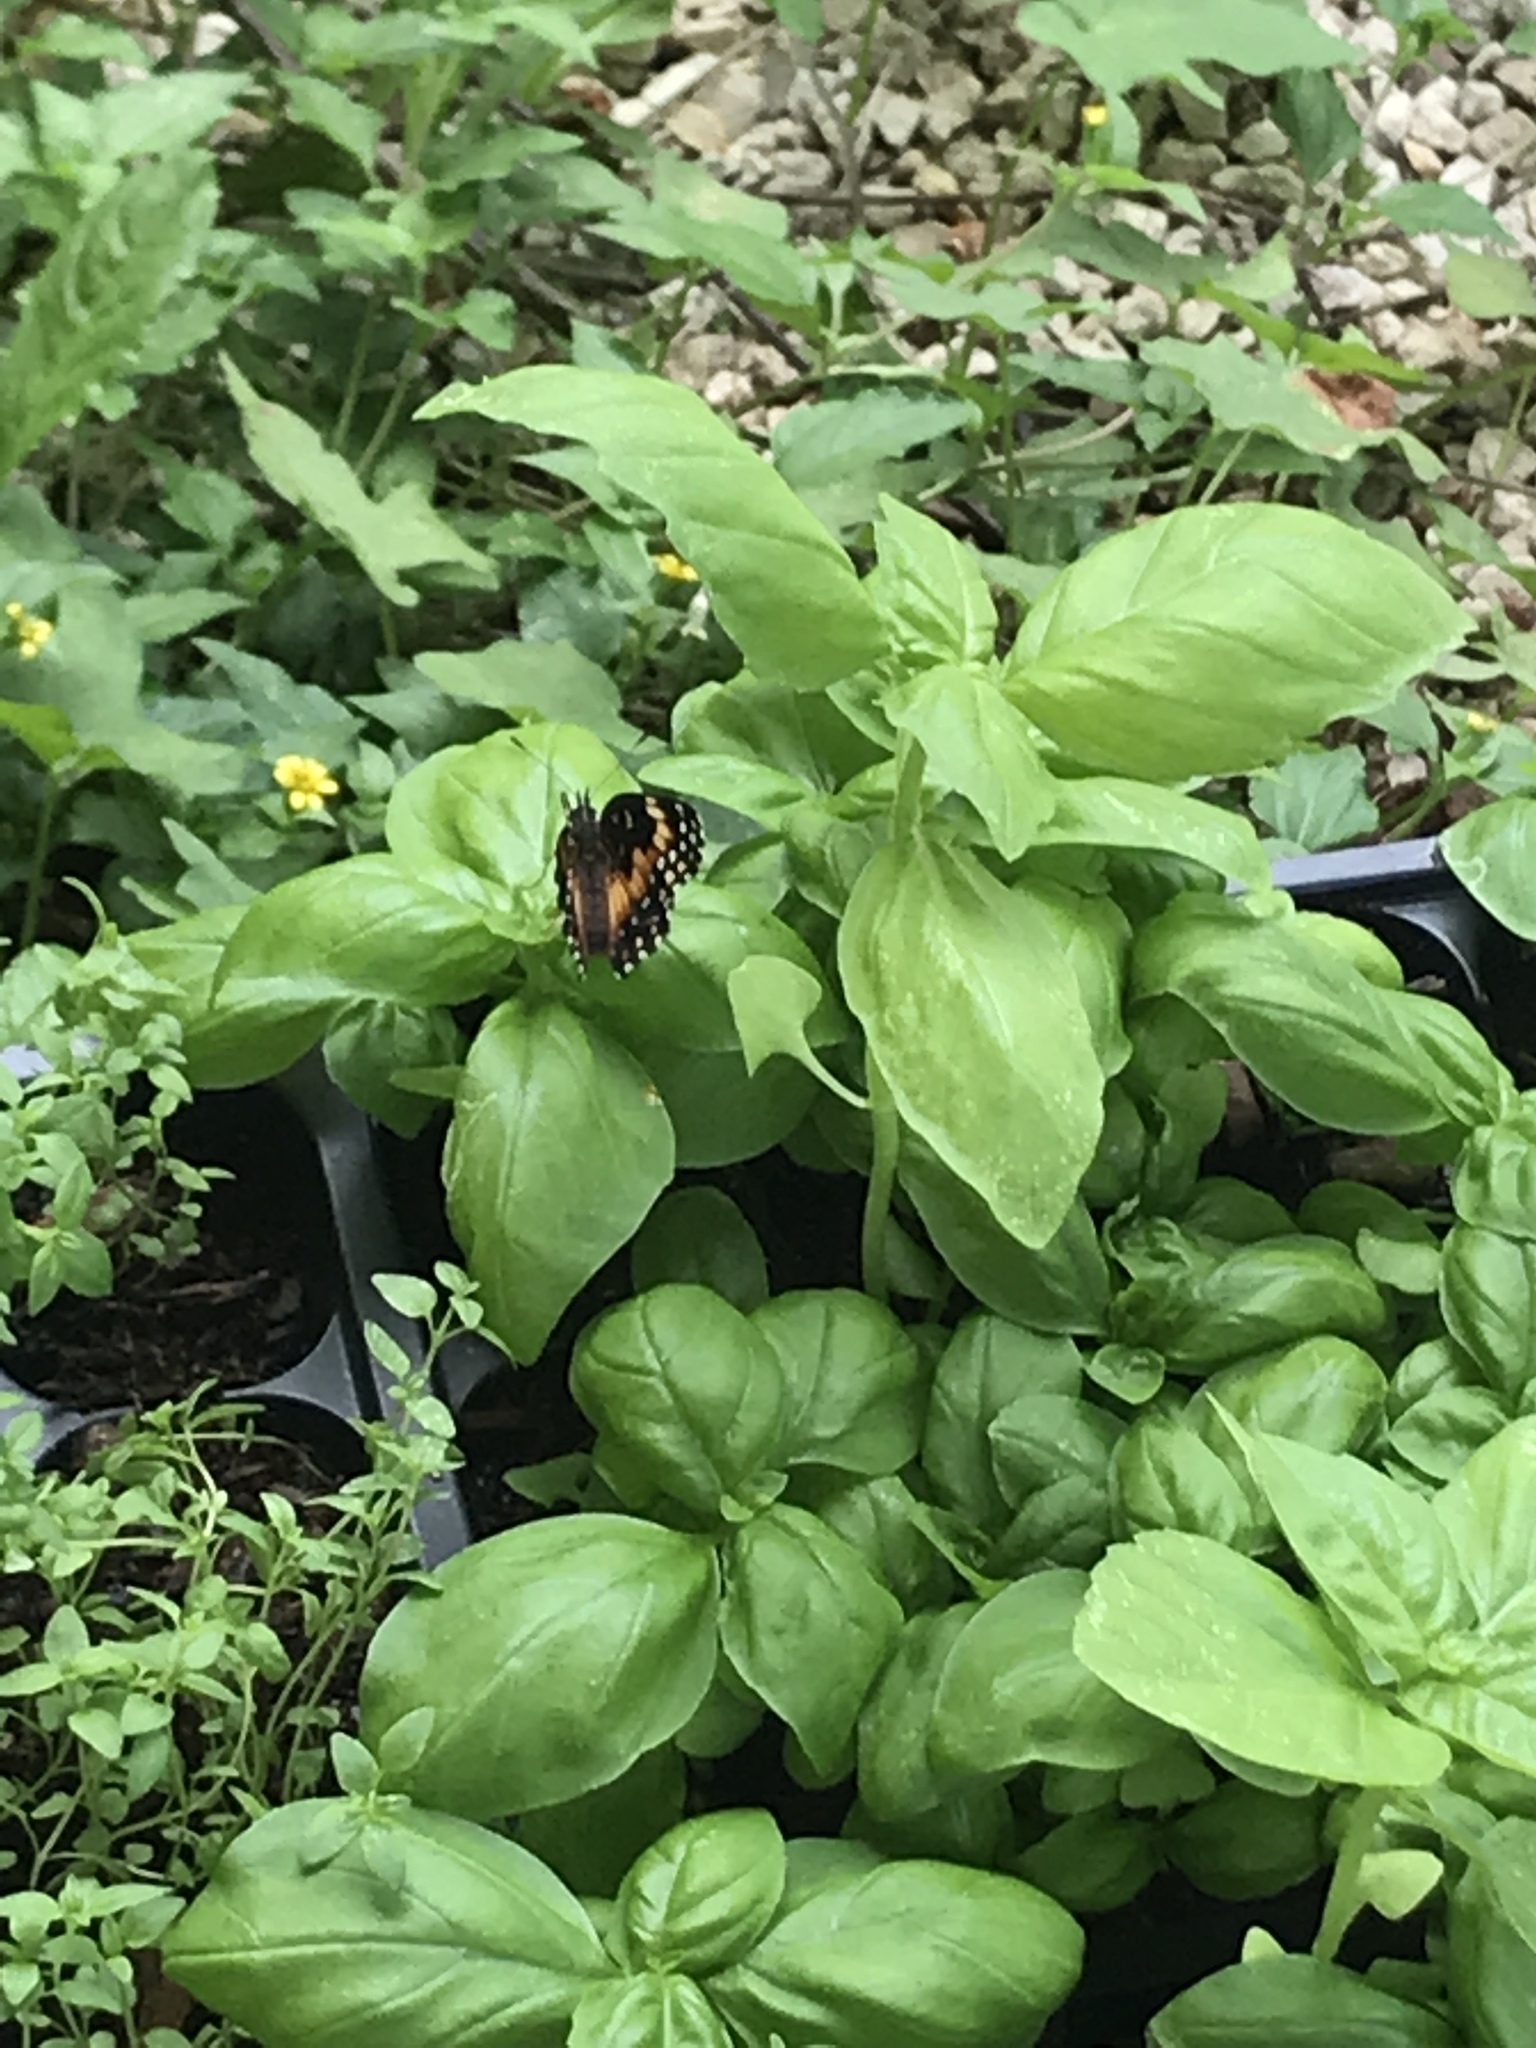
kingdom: Animalia
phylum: Arthropoda
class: Insecta
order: Lepidoptera
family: Nymphalidae
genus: Chlosyne
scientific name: Chlosyne lacinia
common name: Bordered patch
